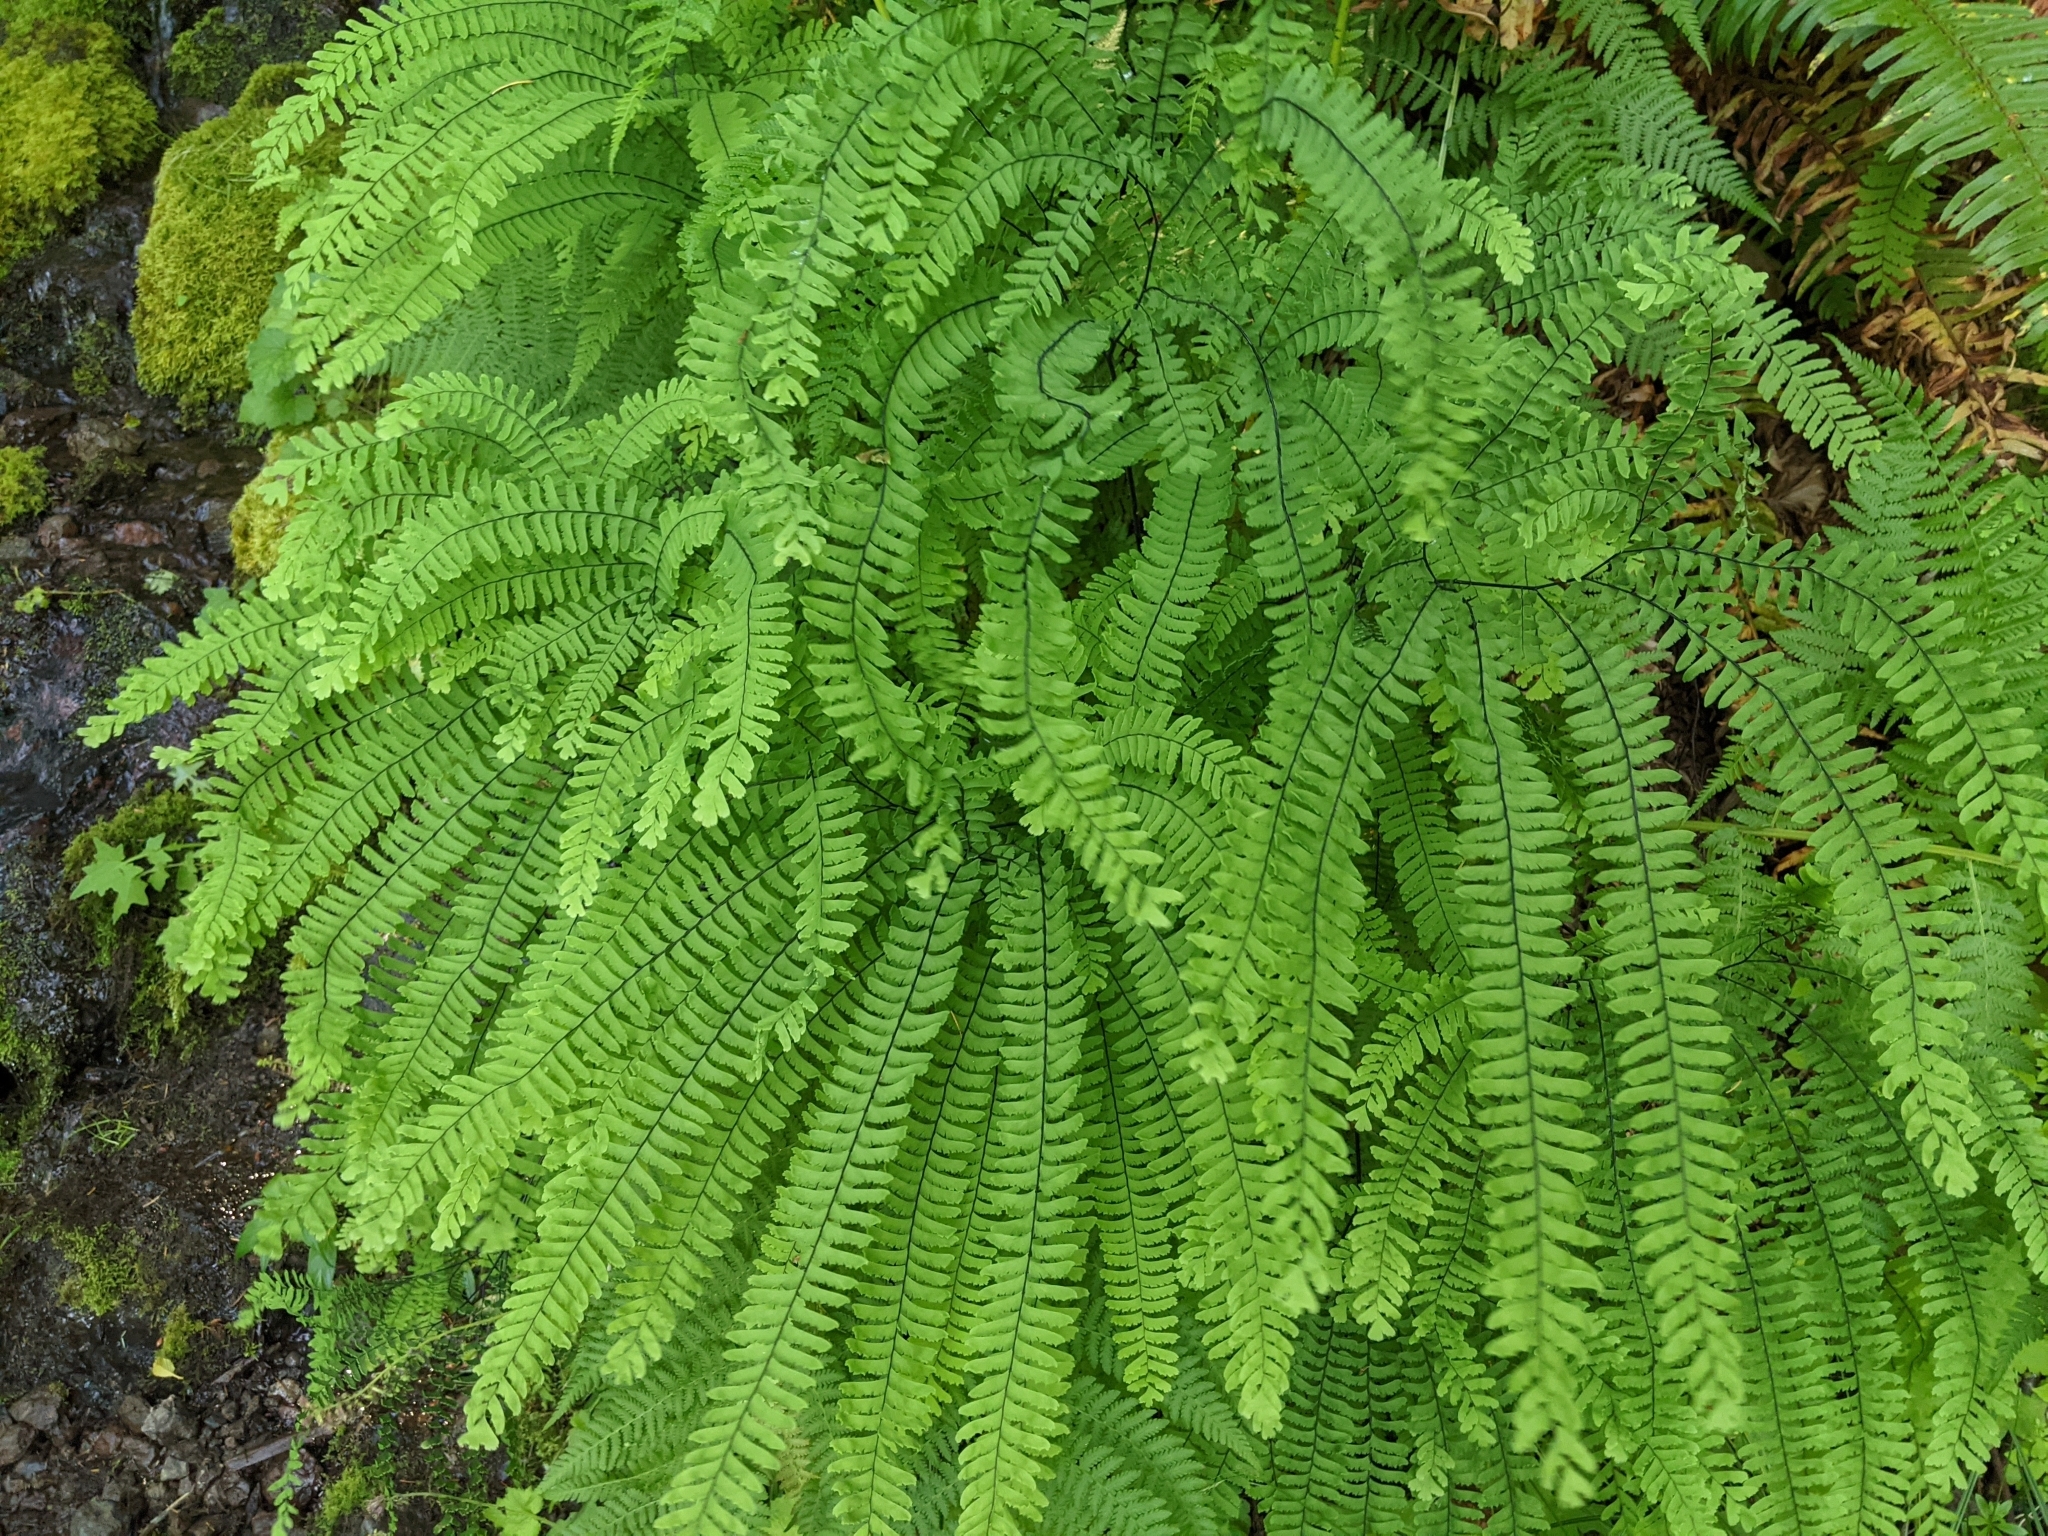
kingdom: Plantae
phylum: Tracheophyta
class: Polypodiopsida
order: Polypodiales
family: Pteridaceae
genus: Adiantum
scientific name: Adiantum aleuticum
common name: Aleutian maidenhair fern
